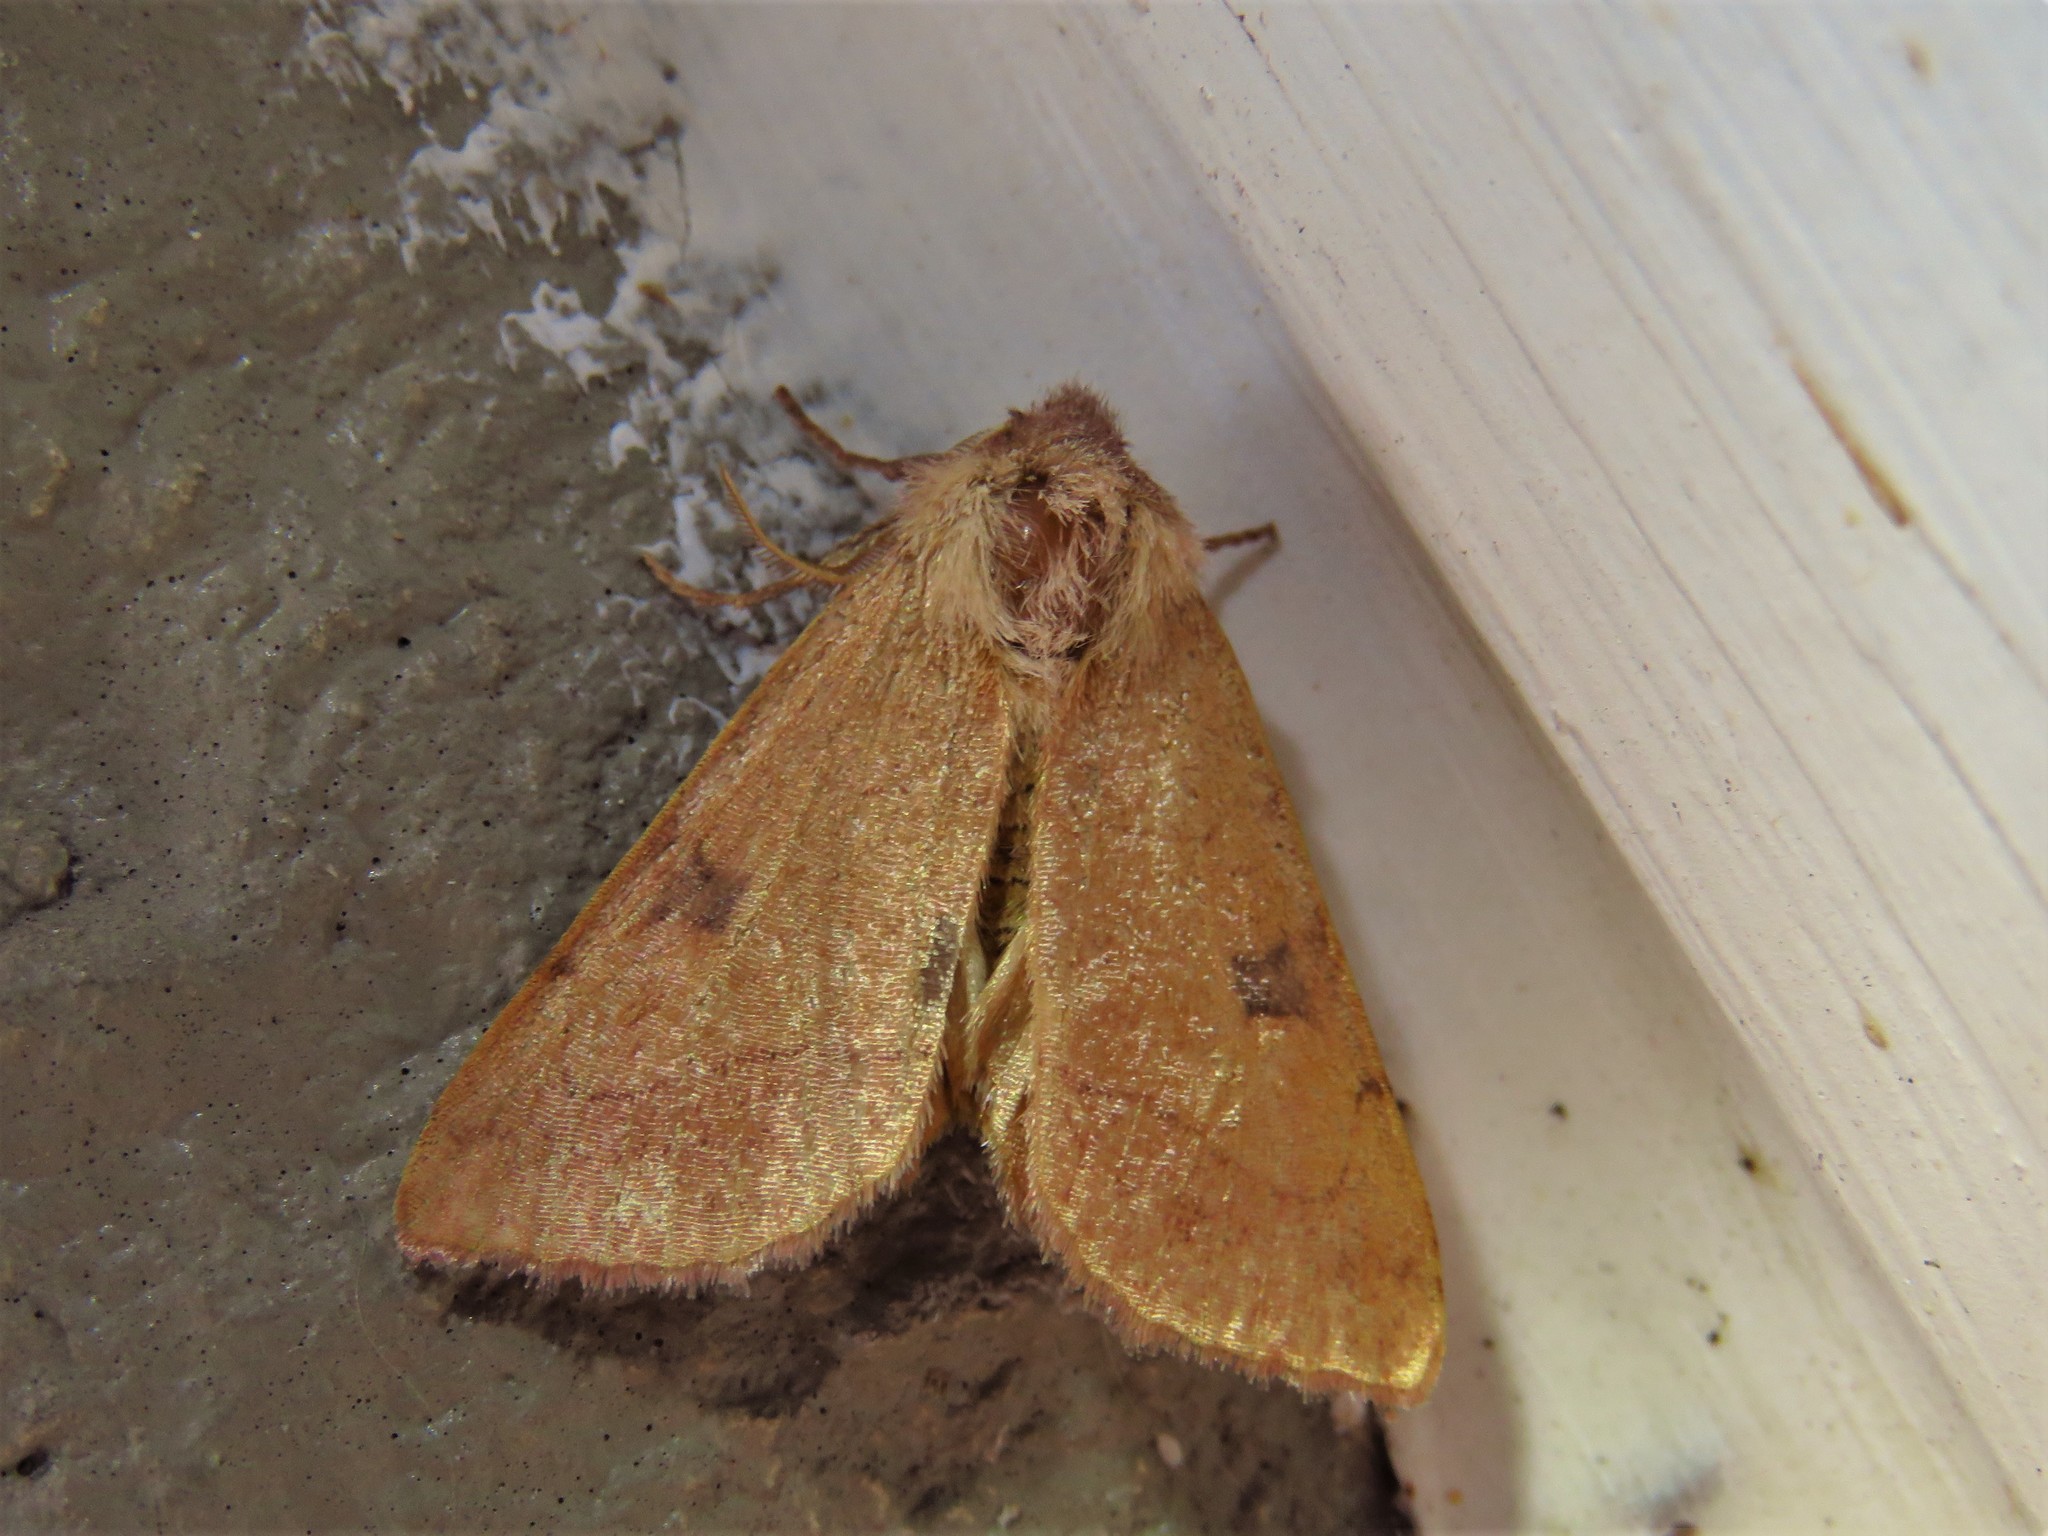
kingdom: Animalia
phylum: Arthropoda
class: Insecta
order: Lepidoptera
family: Noctuidae
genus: Choephora
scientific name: Choephora fungorum
